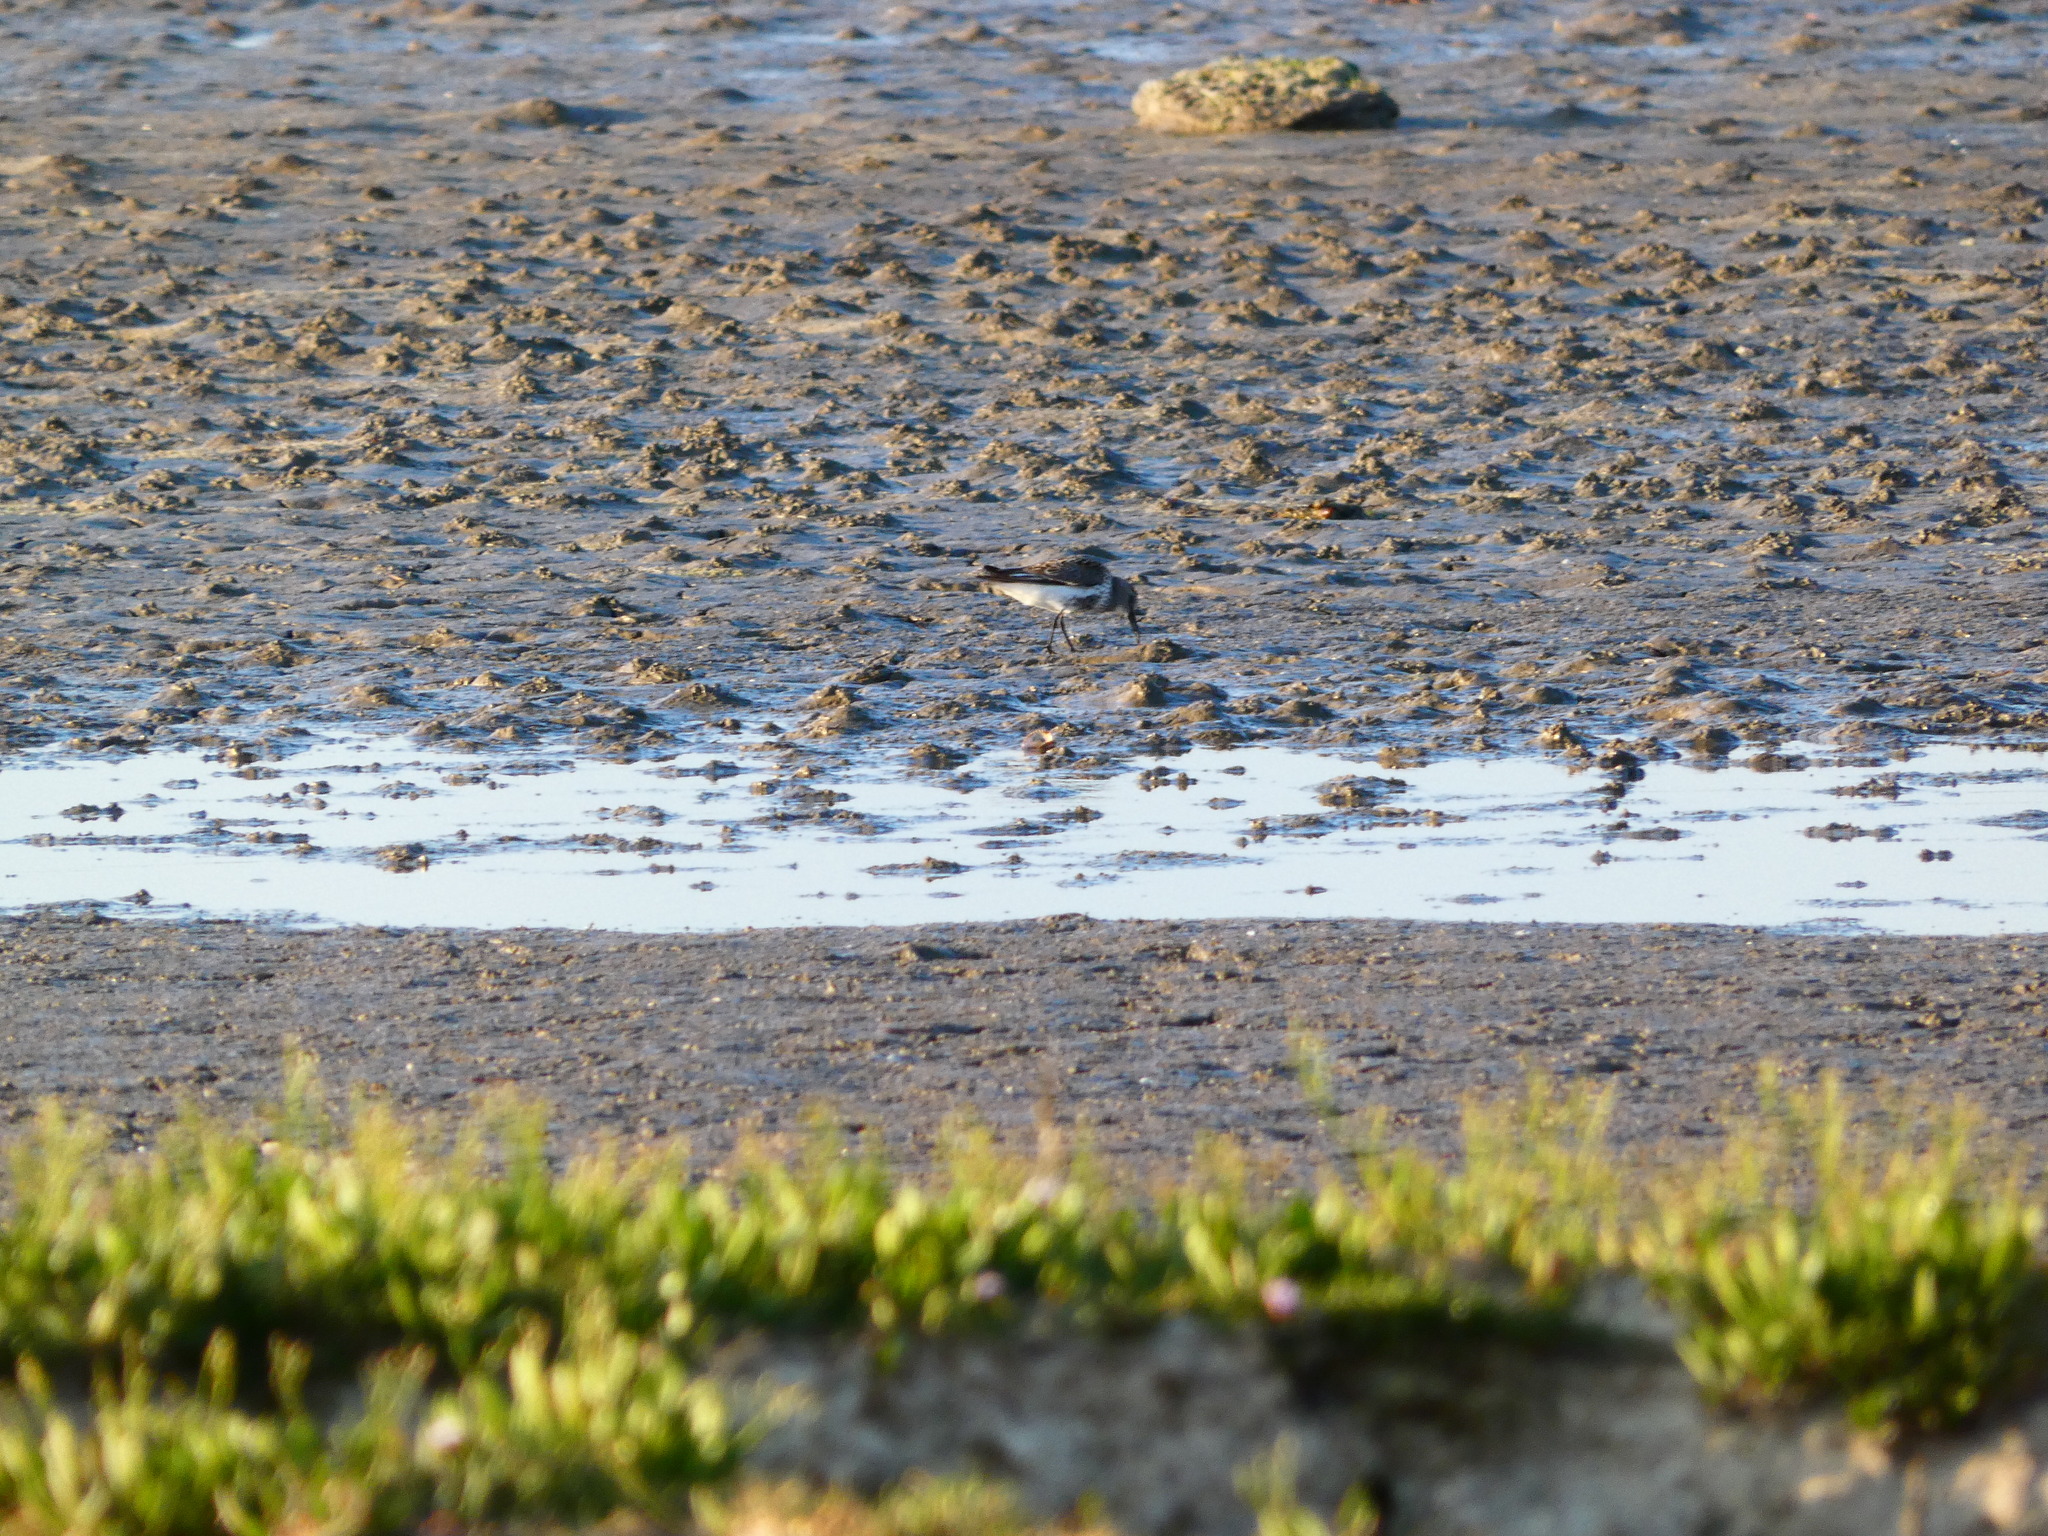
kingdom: Animalia
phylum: Chordata
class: Aves
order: Charadriiformes
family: Scolopacidae
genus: Calidris
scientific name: Calidris alpina
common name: Dunlin
